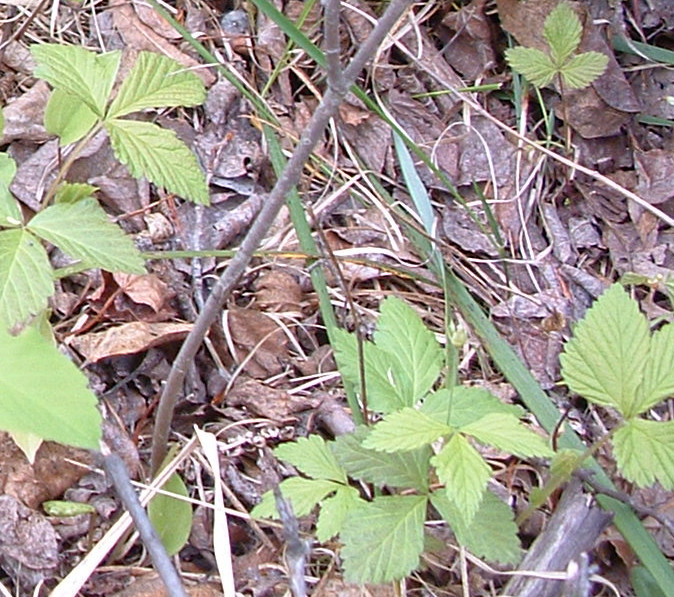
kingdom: Plantae
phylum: Tracheophyta
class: Magnoliopsida
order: Rosales
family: Rosaceae
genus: Rubus
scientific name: Rubus pubescens
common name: Dwarf raspberry
